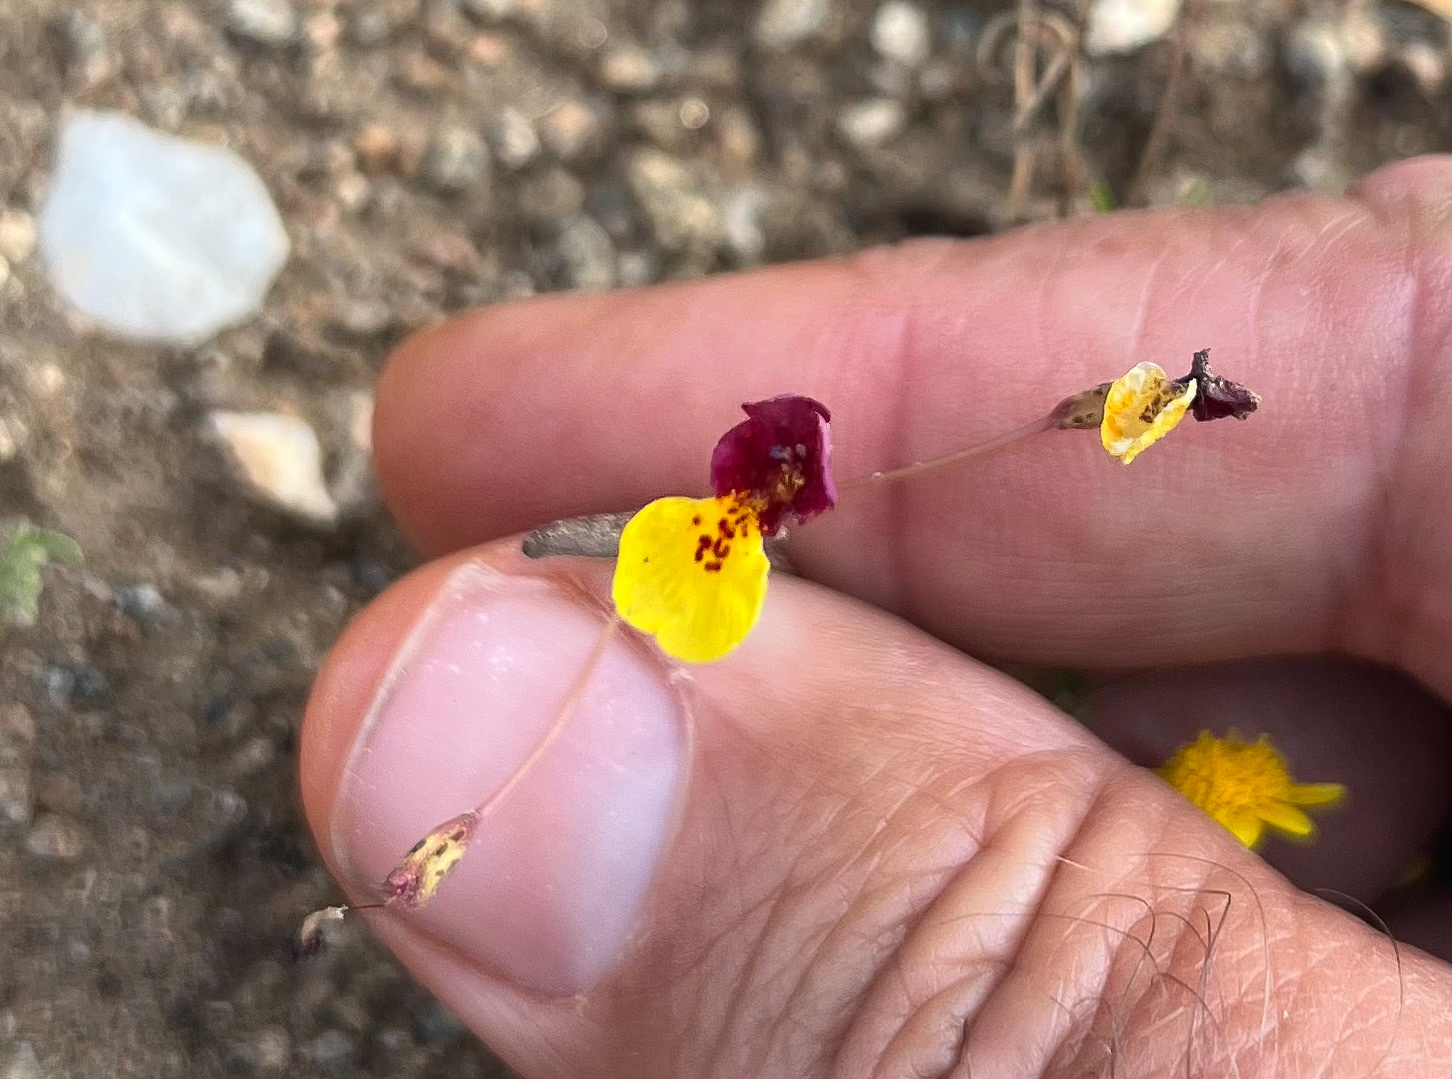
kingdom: Plantae
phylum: Tracheophyta
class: Magnoliopsida
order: Lamiales
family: Phrymaceae
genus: Erythranthe
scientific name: Erythranthe shevockii
